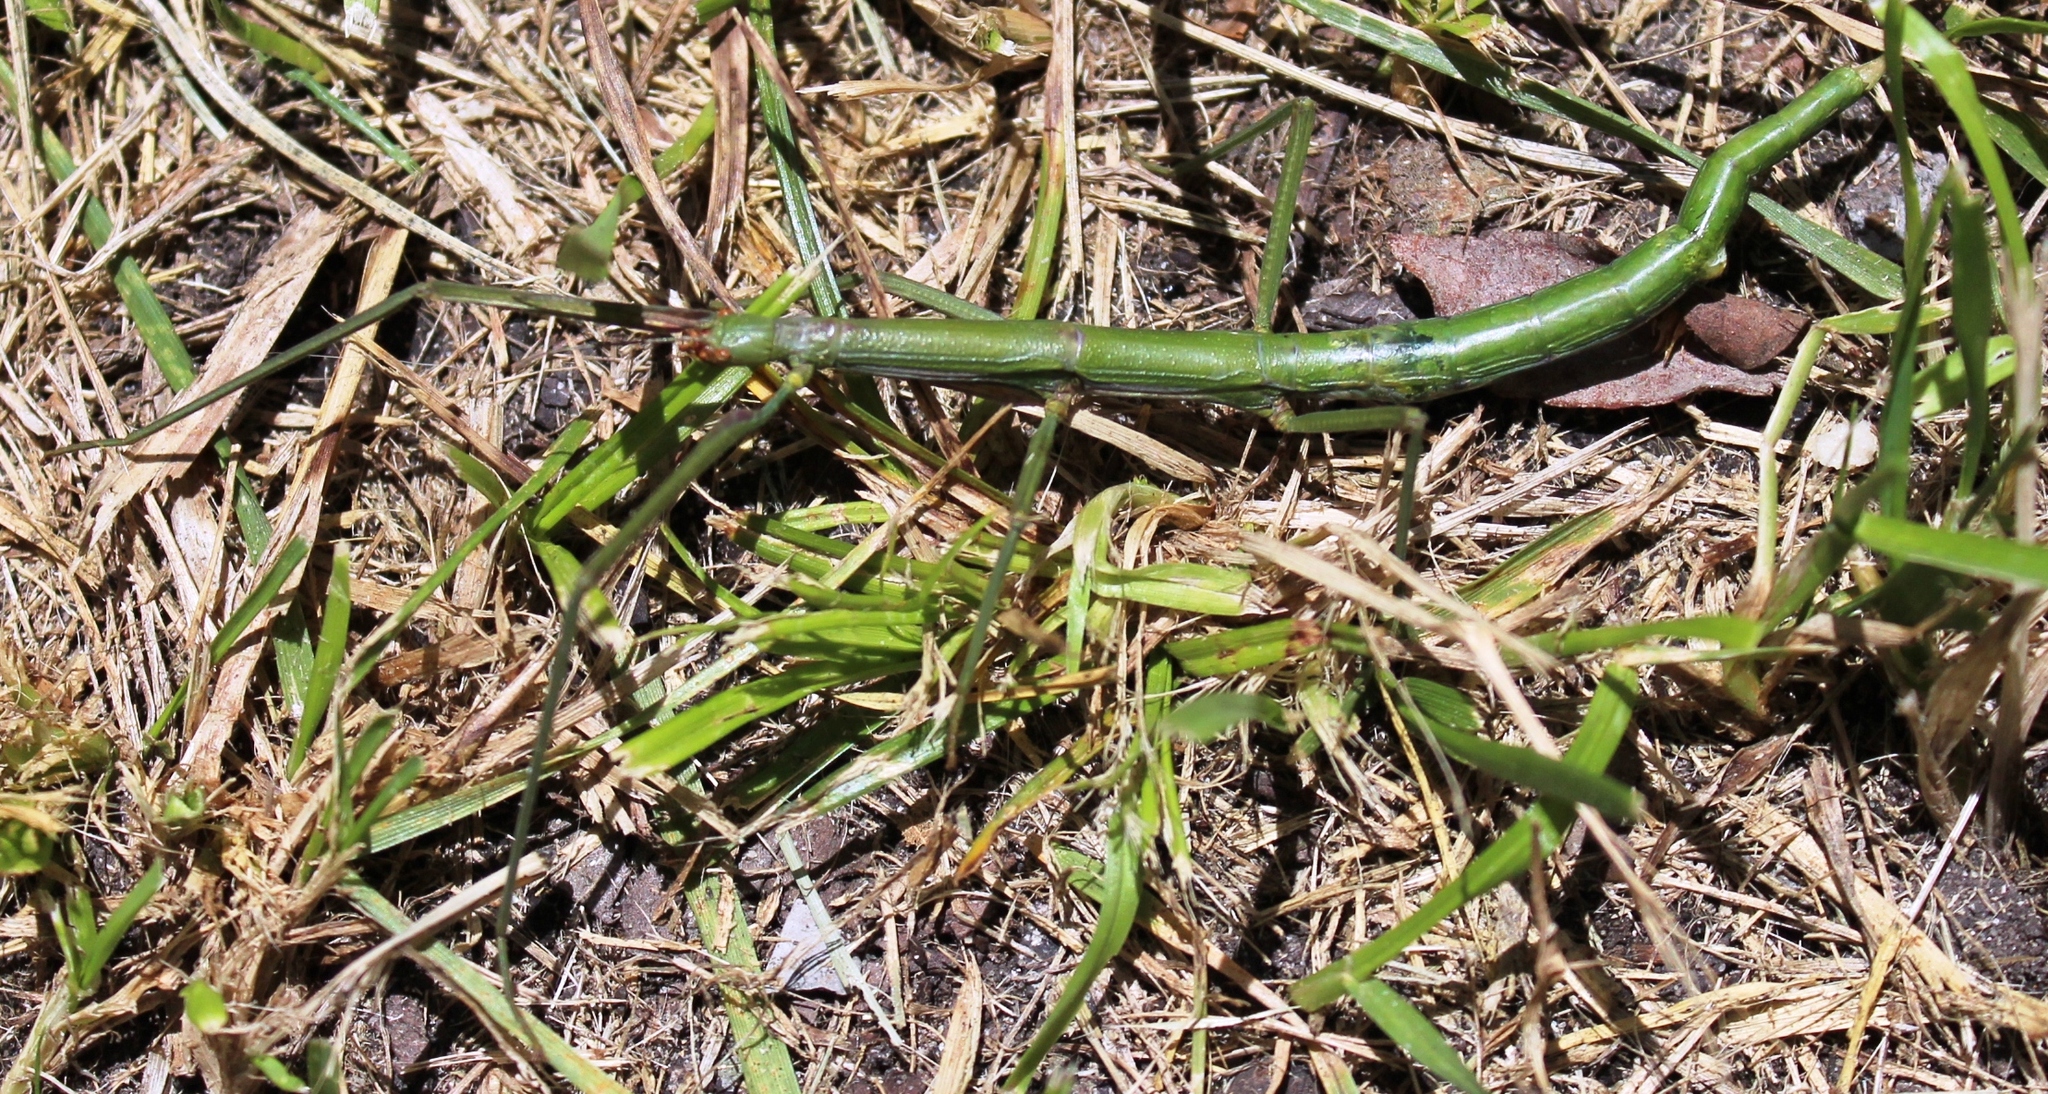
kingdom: Animalia
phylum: Arthropoda
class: Insecta
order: Phasmida
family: Bacillidae
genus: Phalces
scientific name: Phalces brevis
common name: Cape stick insect
